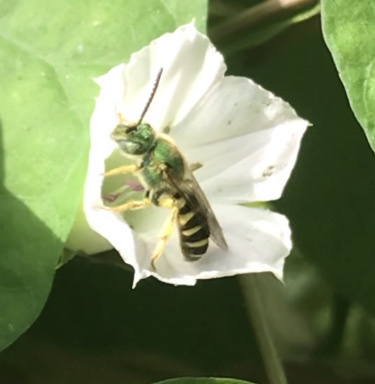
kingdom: Animalia
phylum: Arthropoda
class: Insecta
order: Hymenoptera
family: Halictidae
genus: Agapostemon
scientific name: Agapostemon virescens
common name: Bicolored striped sweat bee
